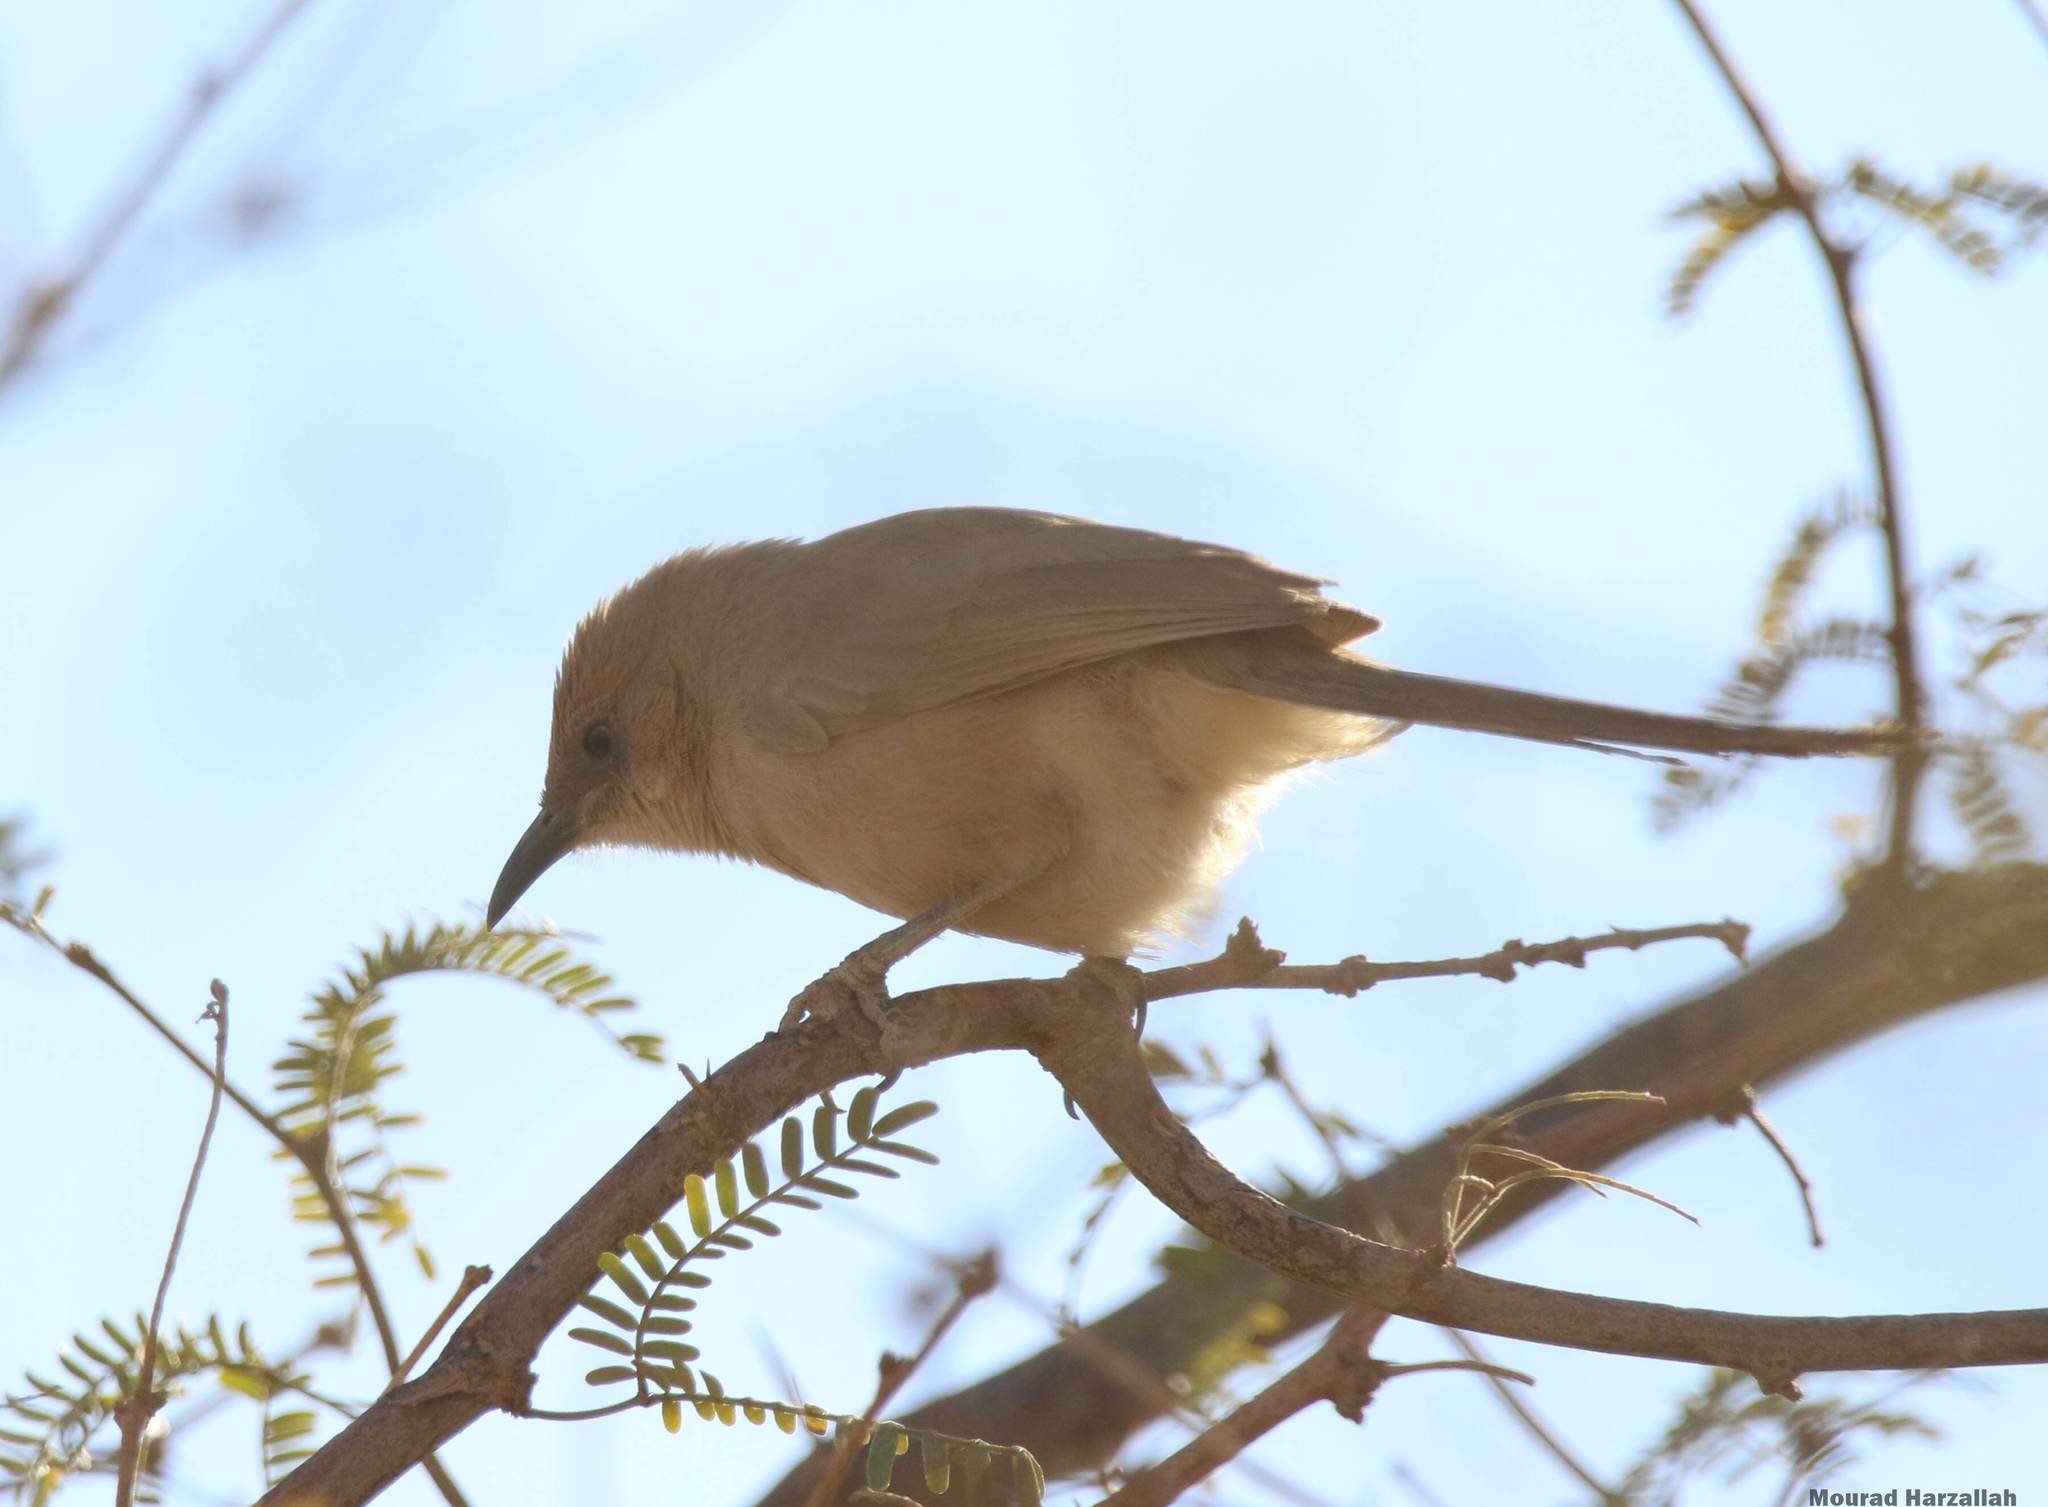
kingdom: Animalia
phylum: Chordata
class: Aves
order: Passeriformes
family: Leiothrichidae
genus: Turdoides
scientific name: Turdoides fulva
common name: Fulvous babbler
